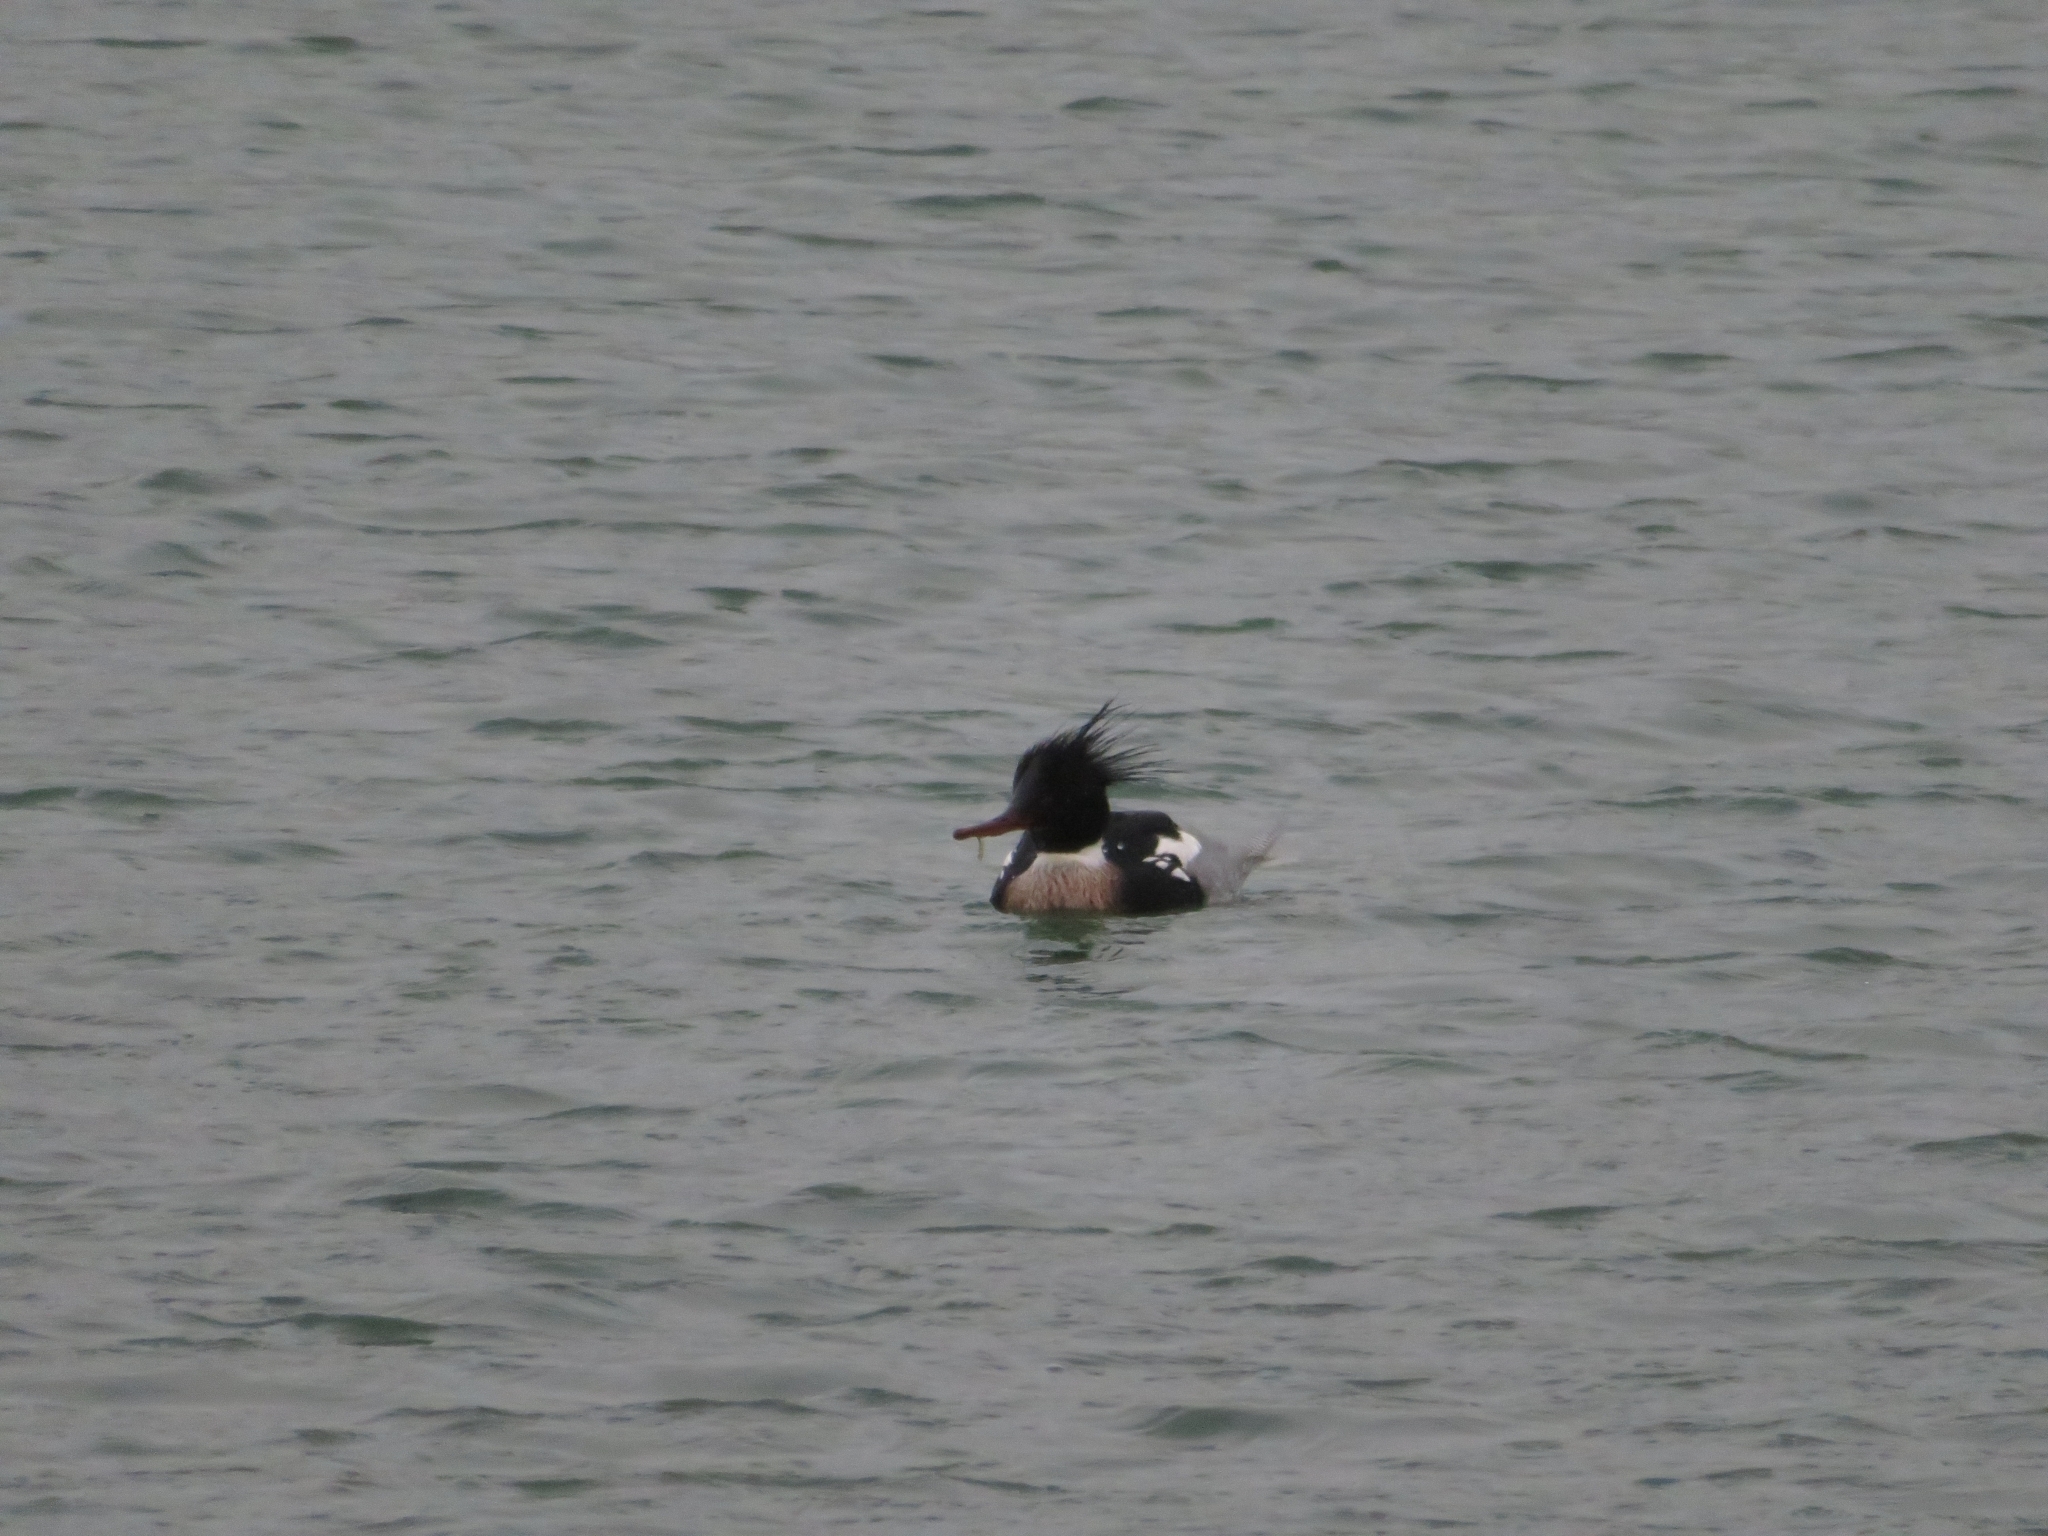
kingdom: Animalia
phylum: Chordata
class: Aves
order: Anseriformes
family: Anatidae
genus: Mergus
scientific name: Mergus serrator
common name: Red-breasted merganser
